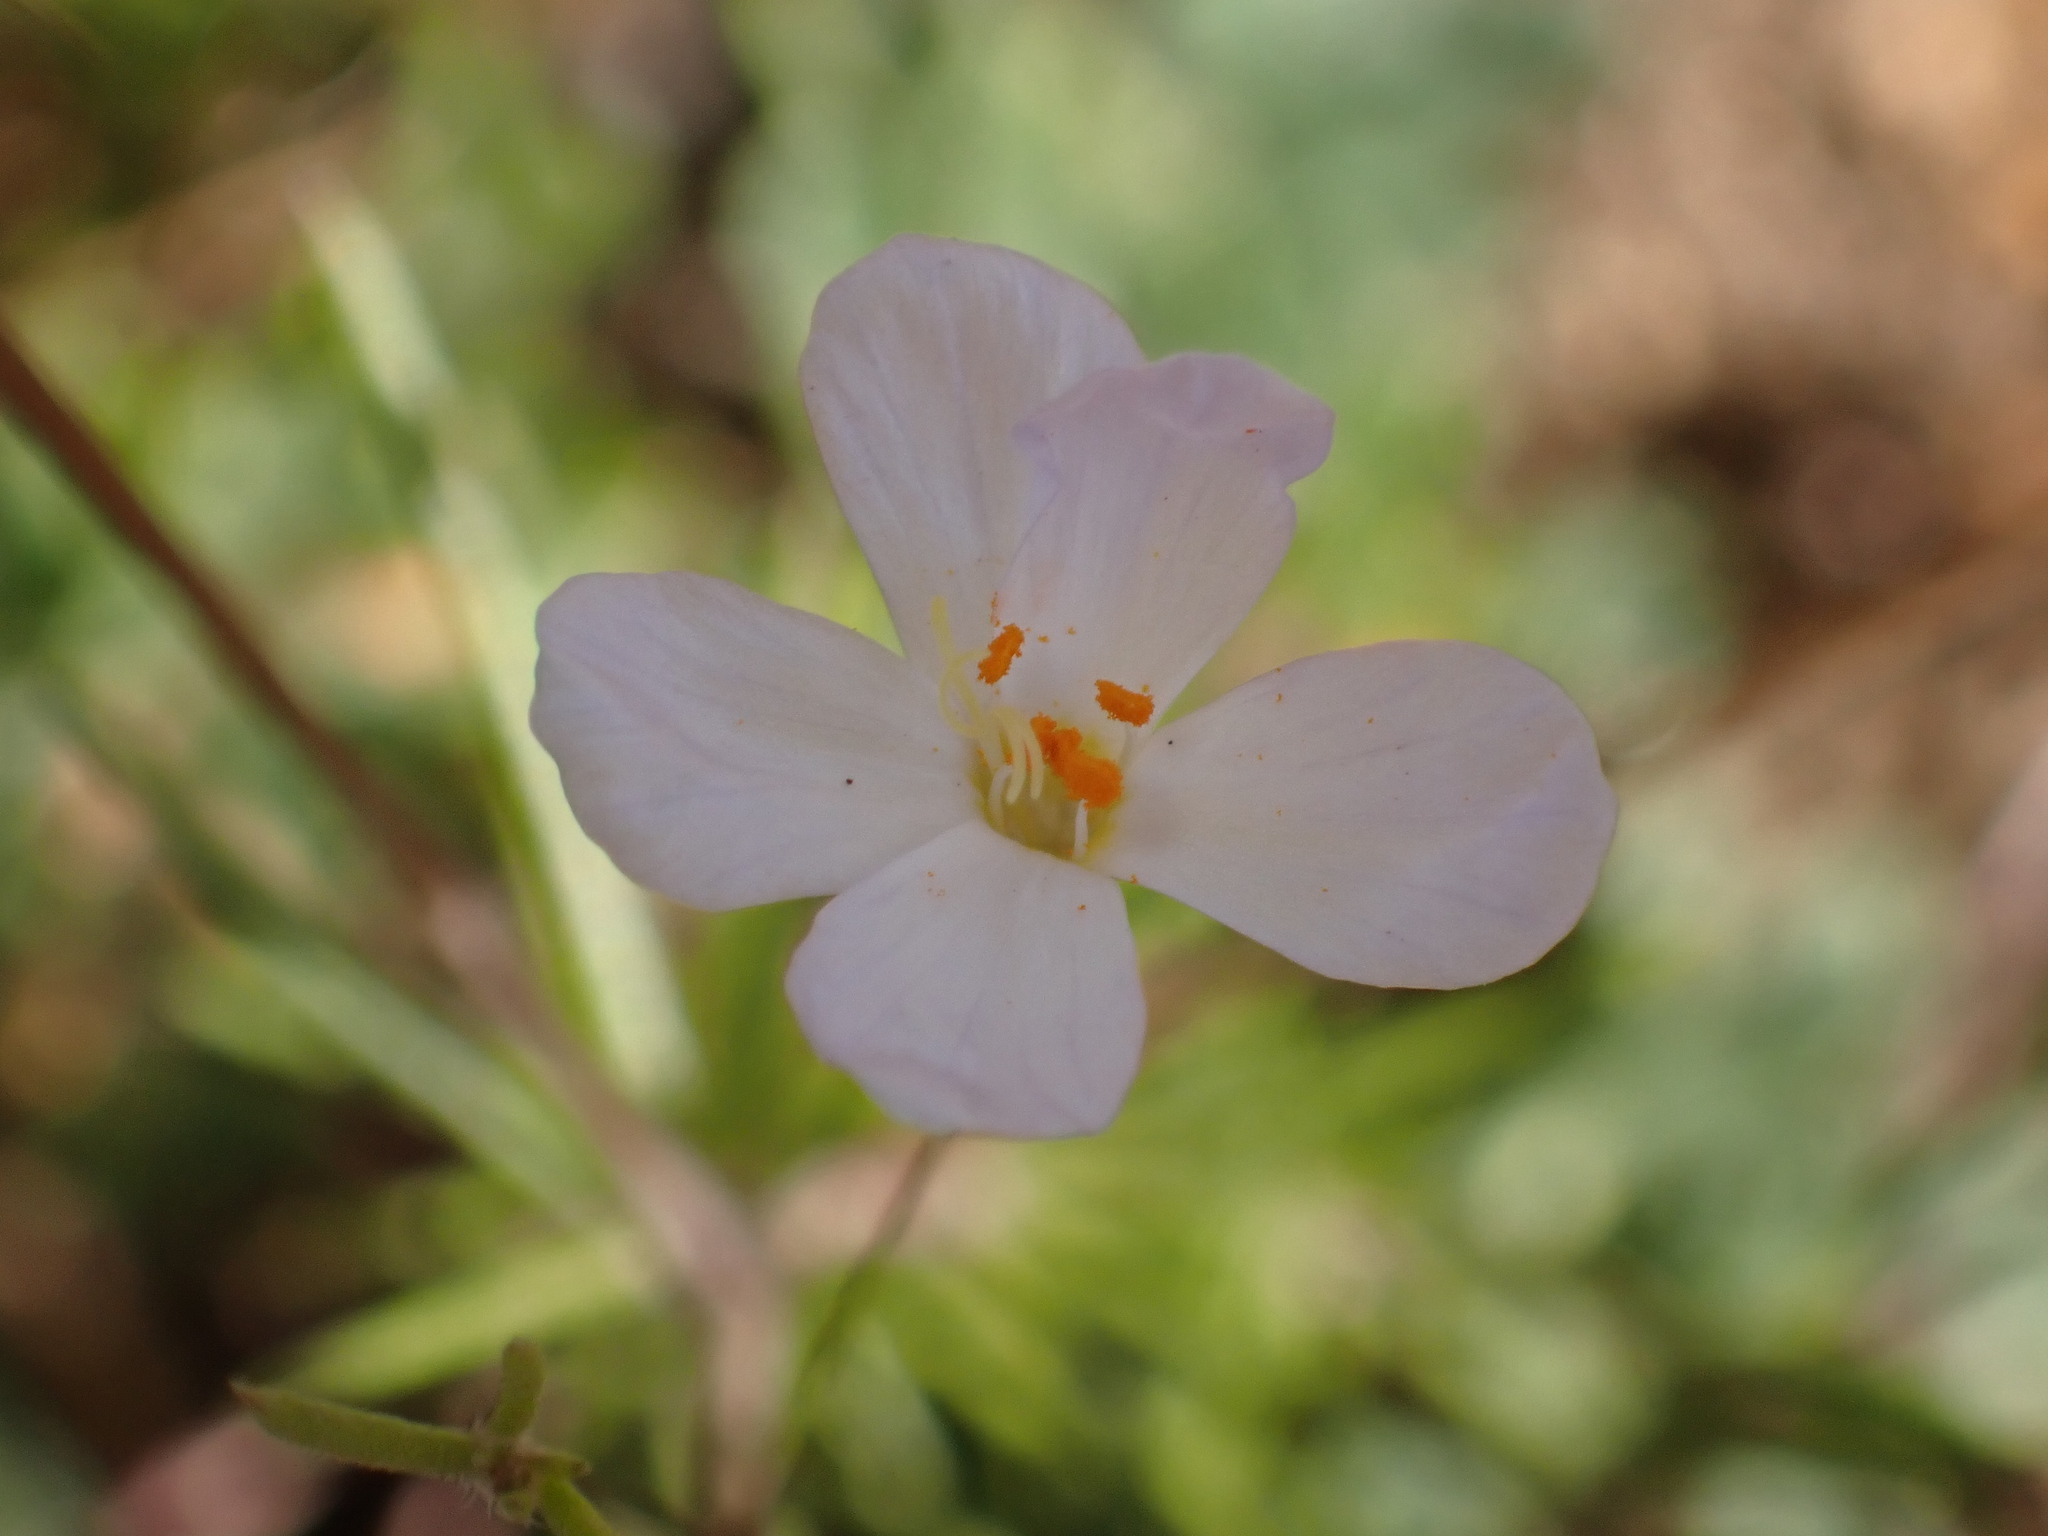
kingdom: Plantae
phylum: Tracheophyta
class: Magnoliopsida
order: Ericales
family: Polemoniaceae
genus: Leptosiphon
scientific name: Leptosiphon liniflorus
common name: Narrowflower flaxflower
